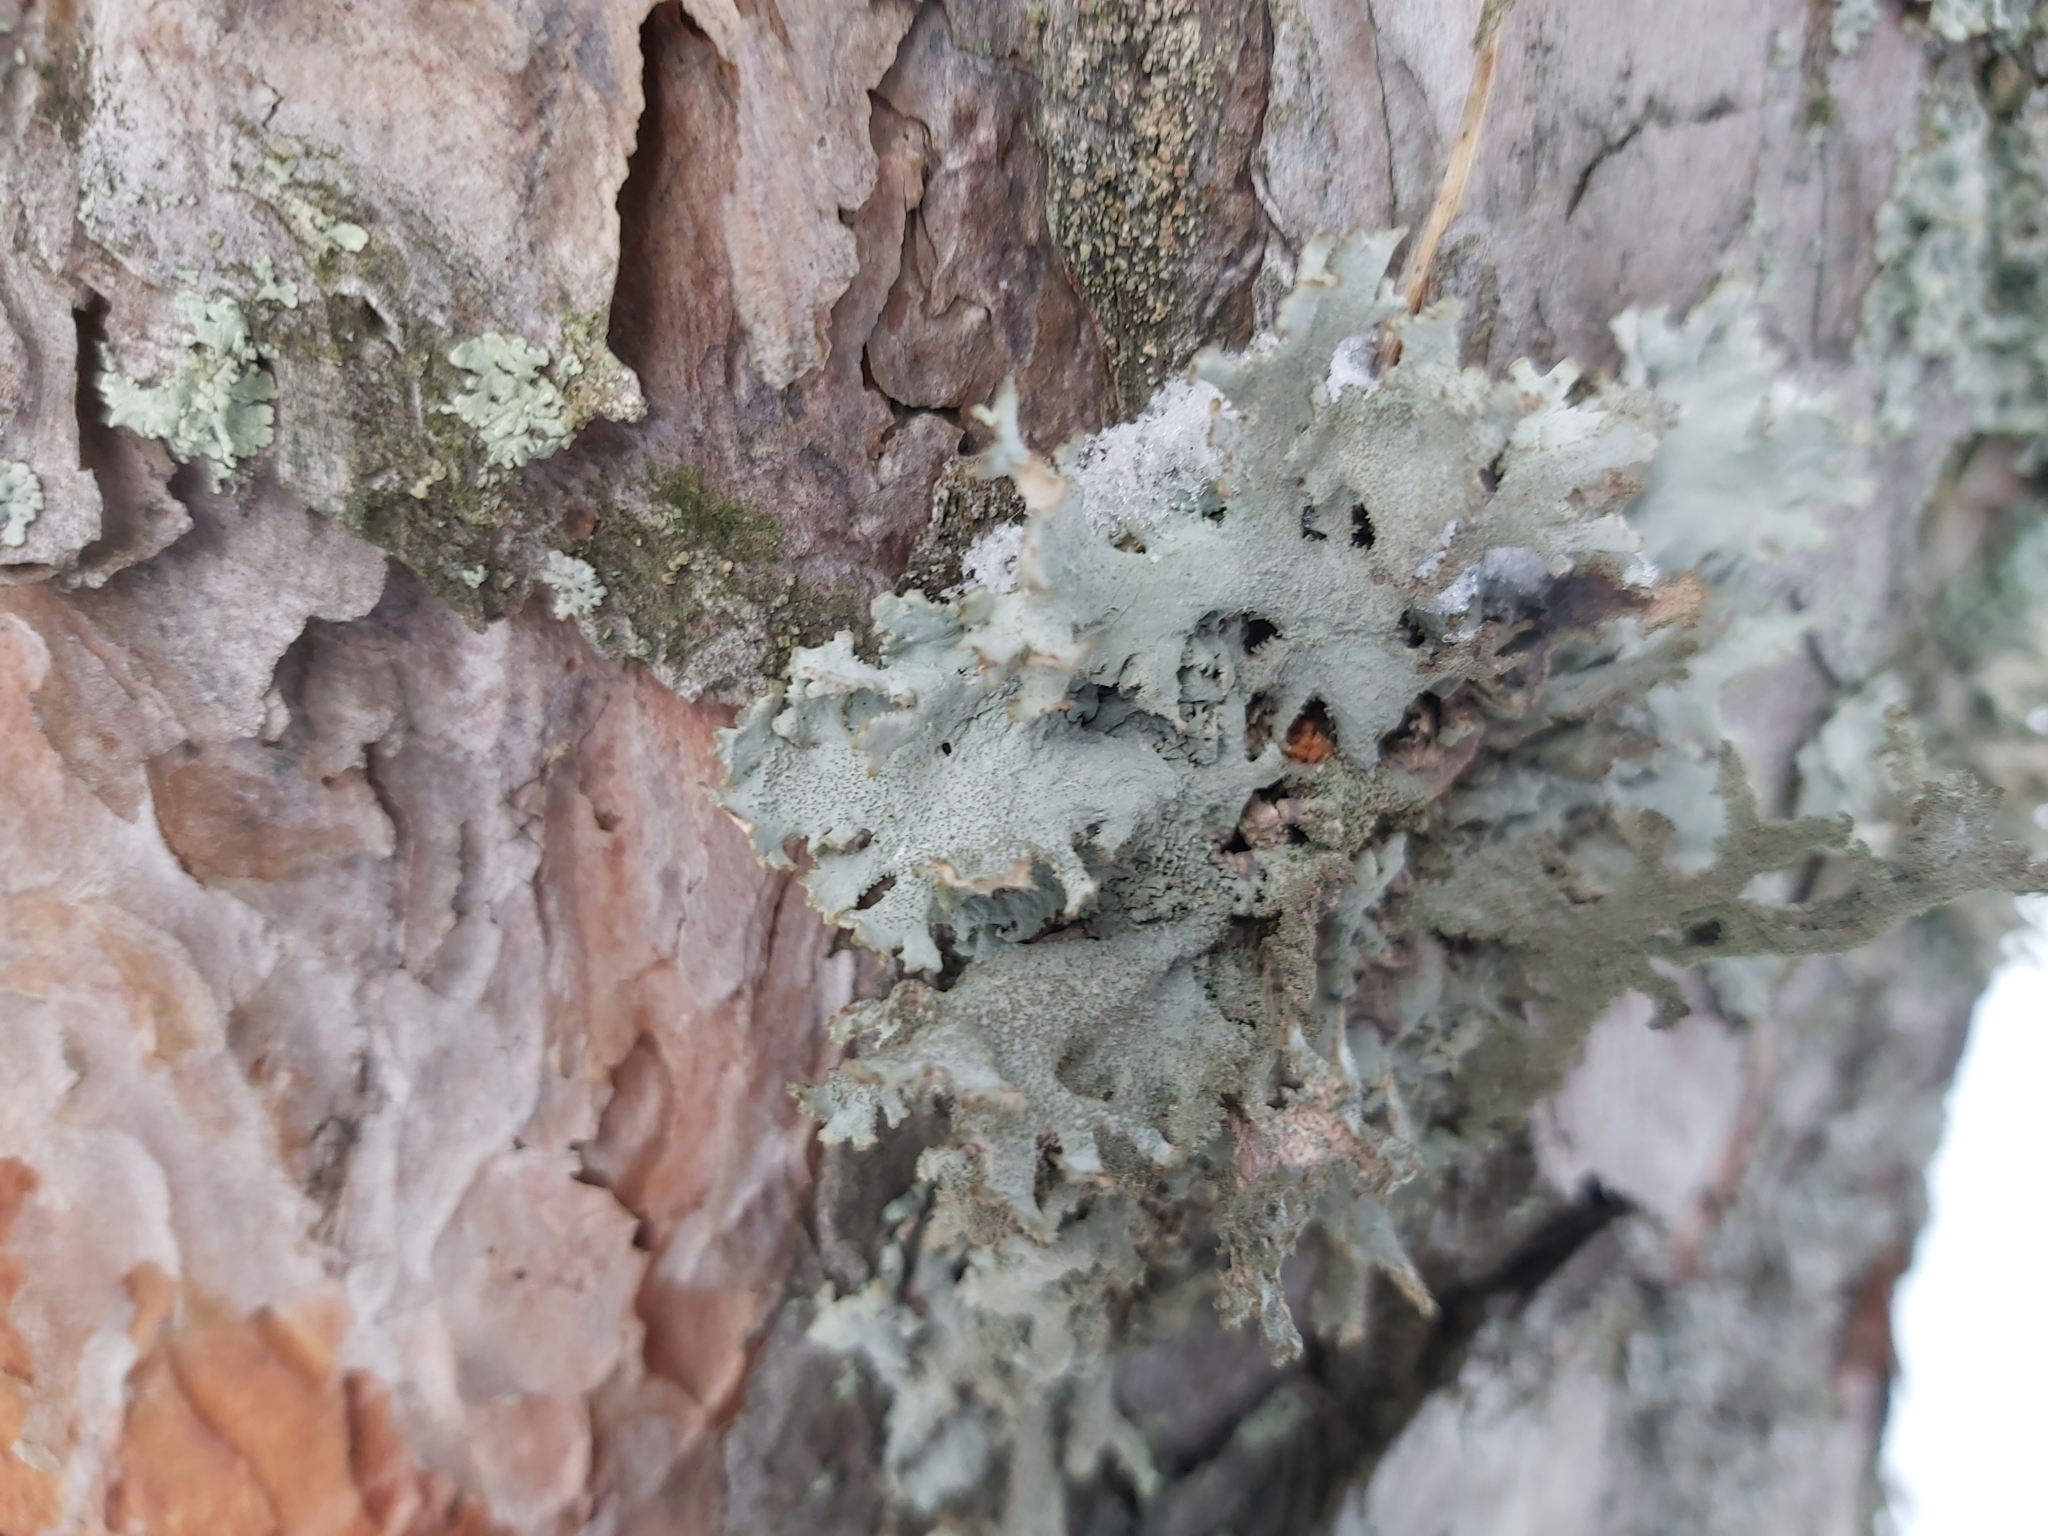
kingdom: Fungi
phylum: Ascomycota
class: Lecanoromycetes
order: Lecanorales
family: Parmeliaceae
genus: Pseudevernia
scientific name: Pseudevernia furfuracea
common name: Tree moss
